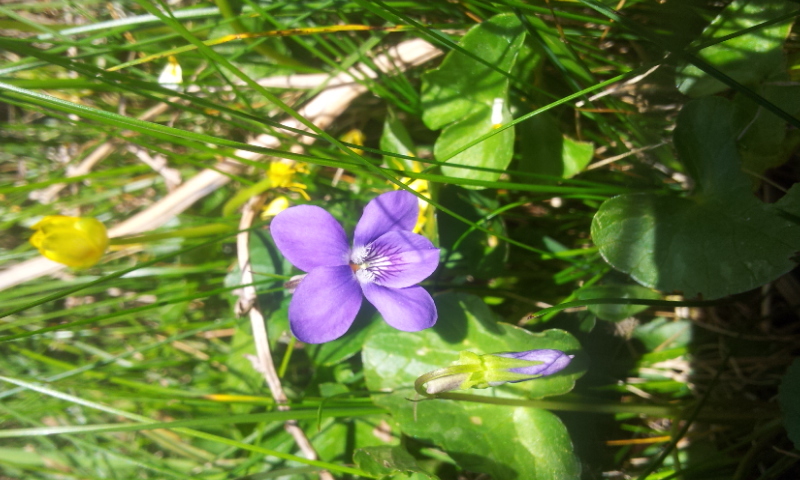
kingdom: Plantae
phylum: Tracheophyta
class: Magnoliopsida
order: Malpighiales
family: Violaceae
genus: Viola
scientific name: Viola riviniana
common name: Common dog-violet
